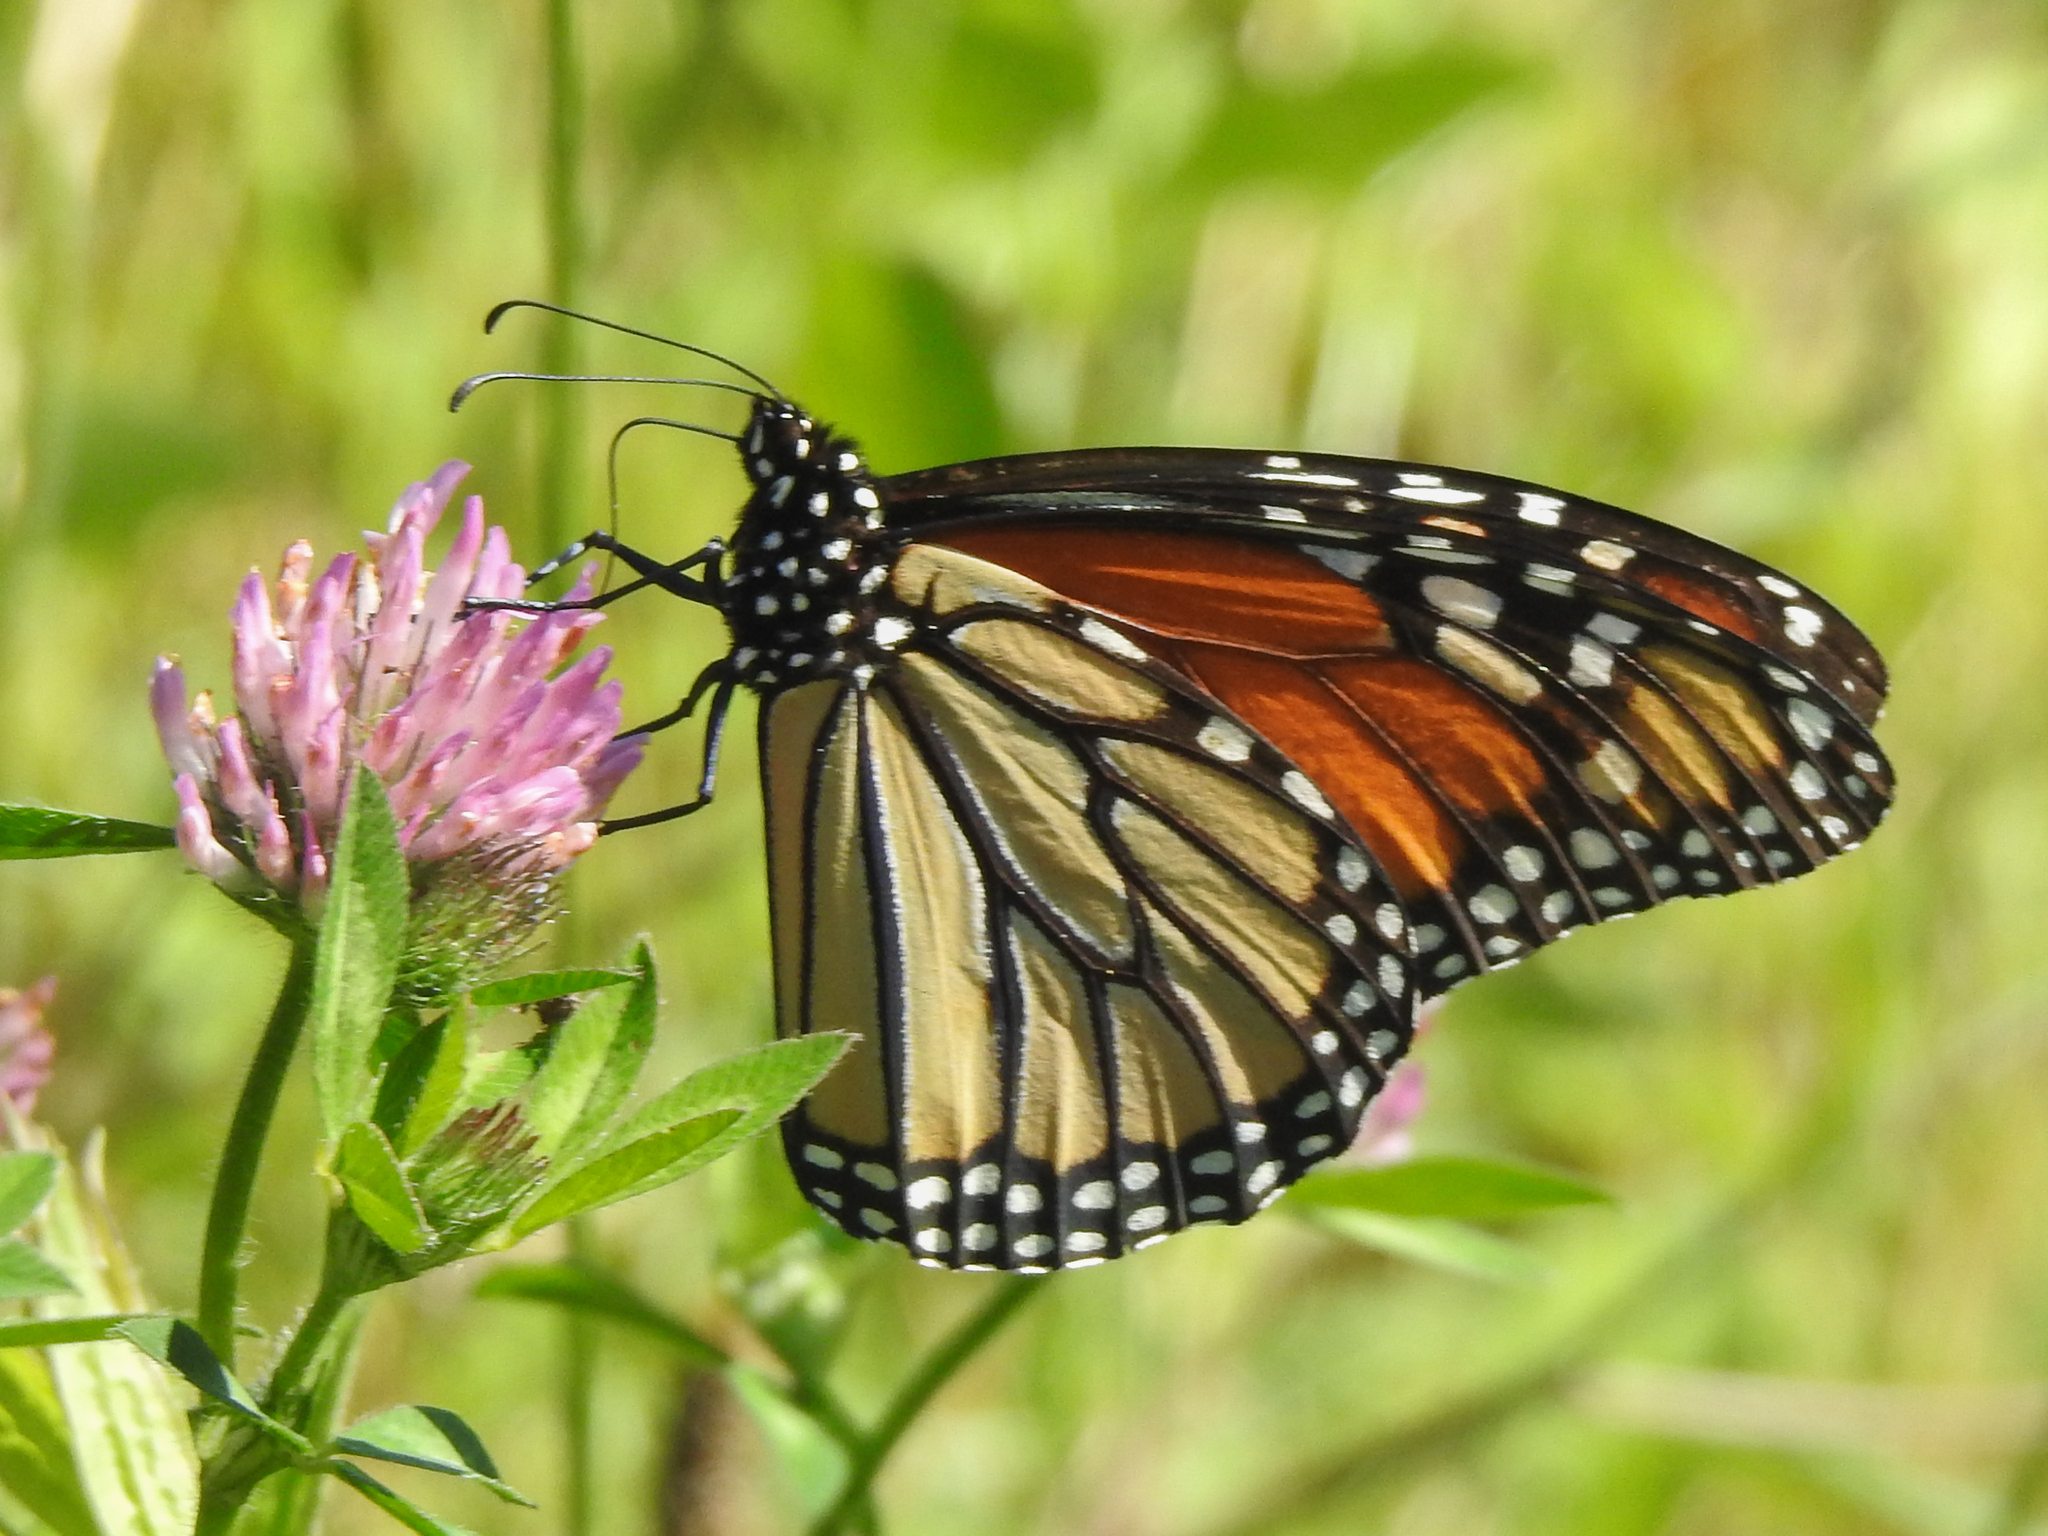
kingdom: Animalia
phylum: Arthropoda
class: Insecta
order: Lepidoptera
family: Nymphalidae
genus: Danaus
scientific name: Danaus plexippus
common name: Monarch
